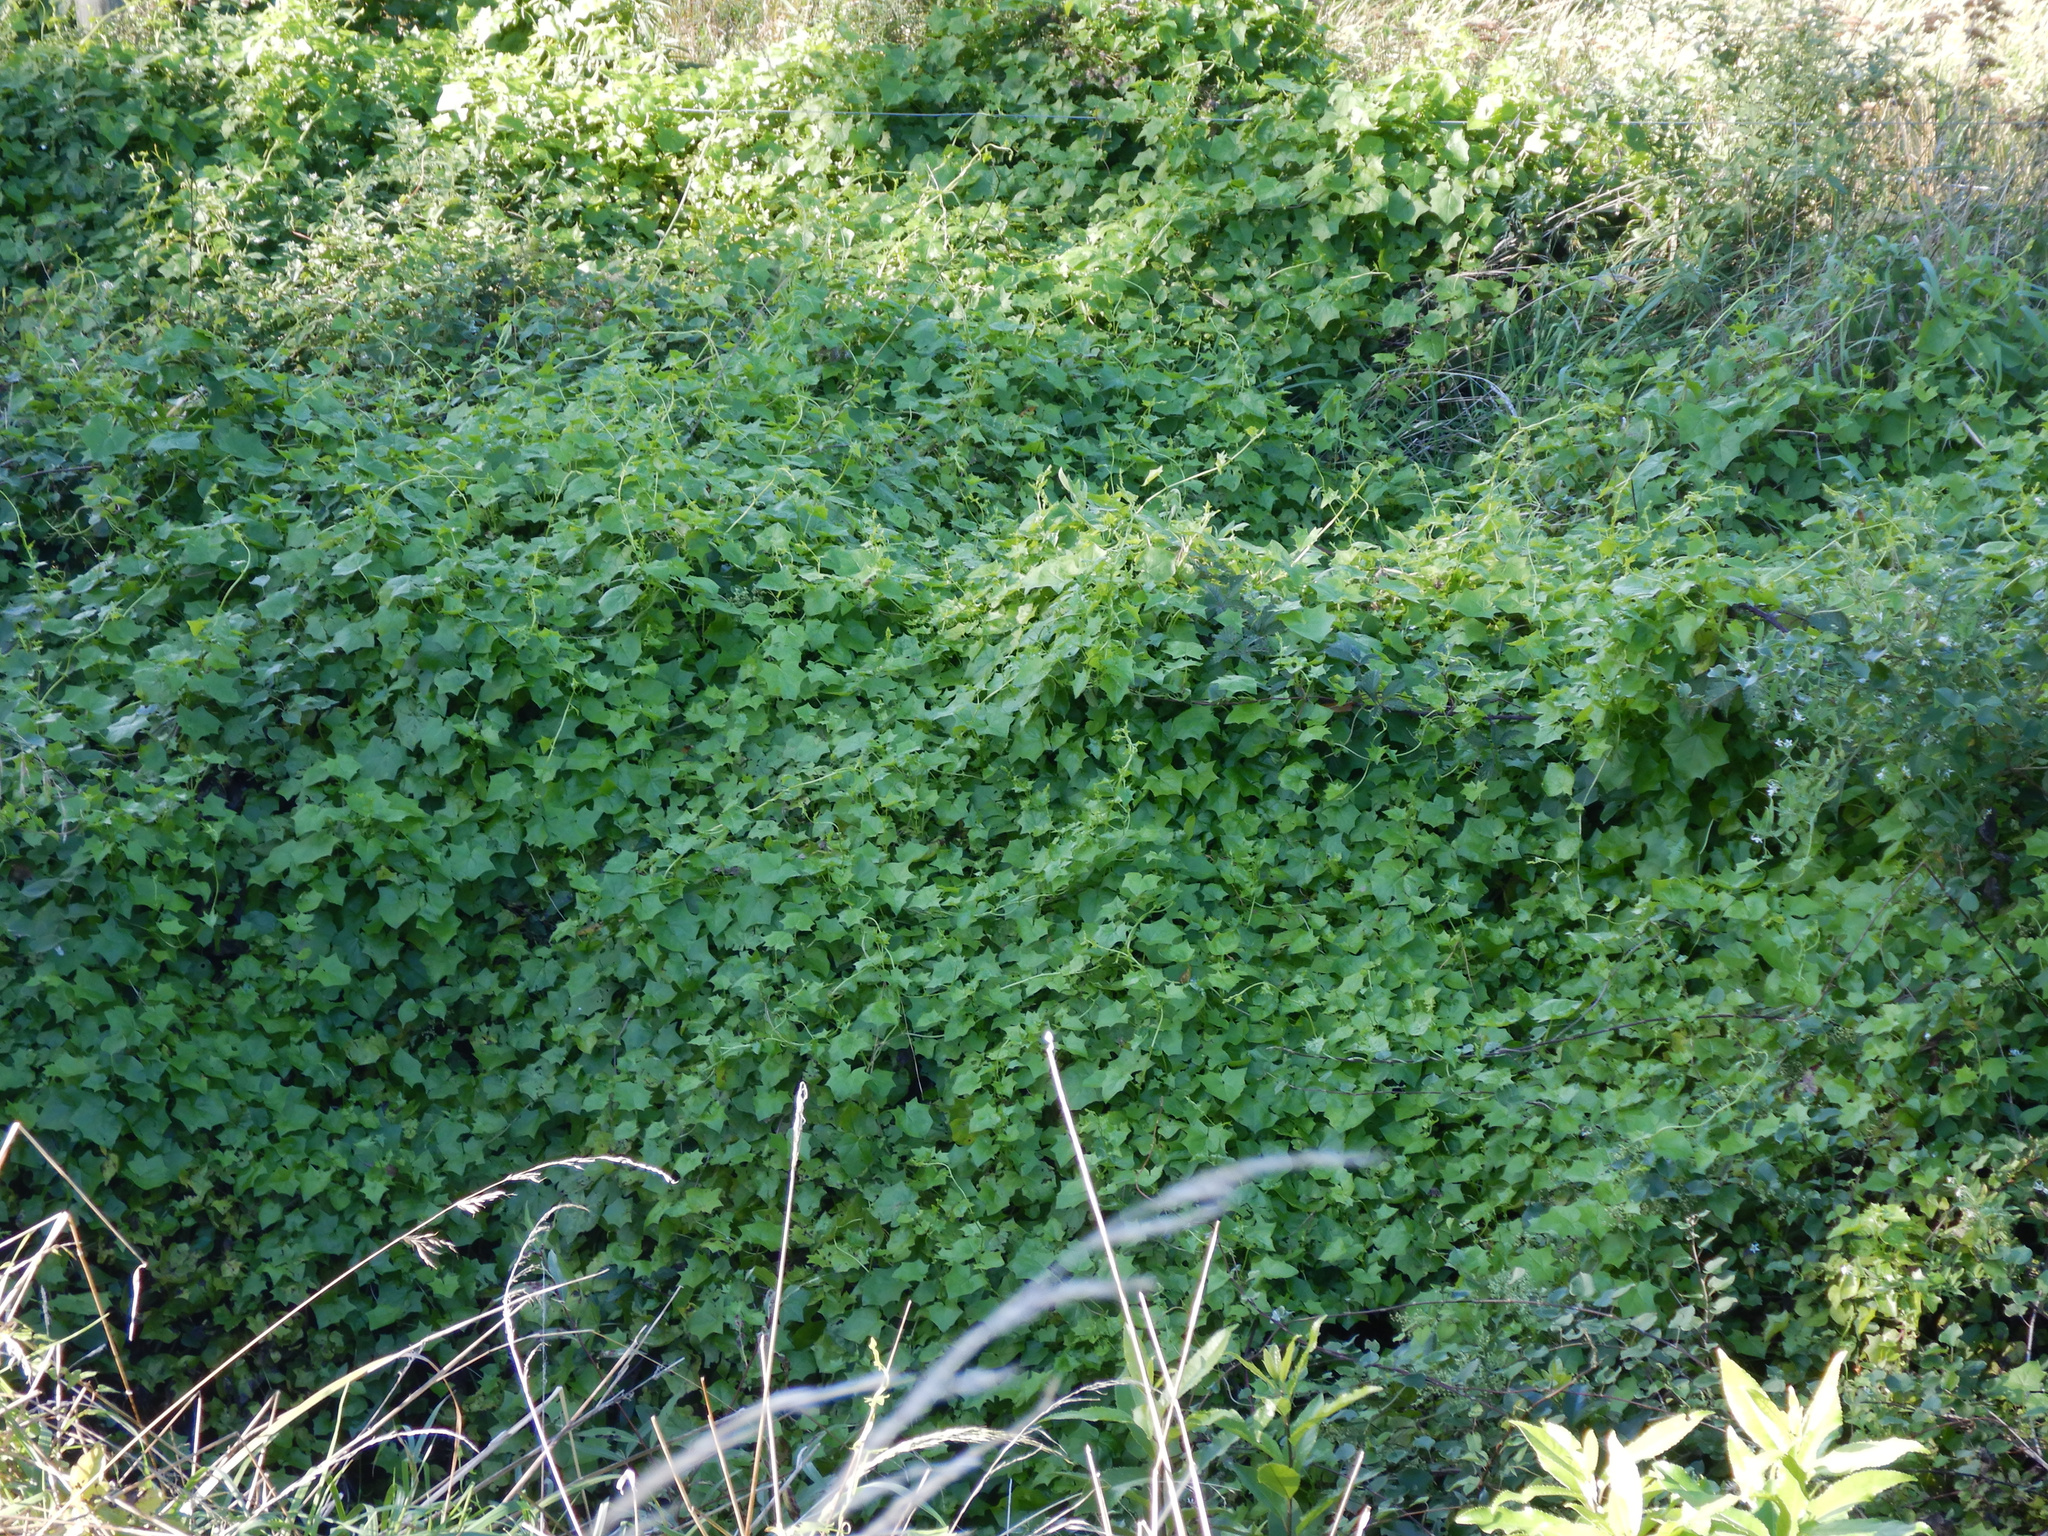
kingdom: Plantae
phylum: Tracheophyta
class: Magnoliopsida
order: Asterales
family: Asteraceae
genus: Delairea
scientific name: Delairea odorata
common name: Cape-ivy
